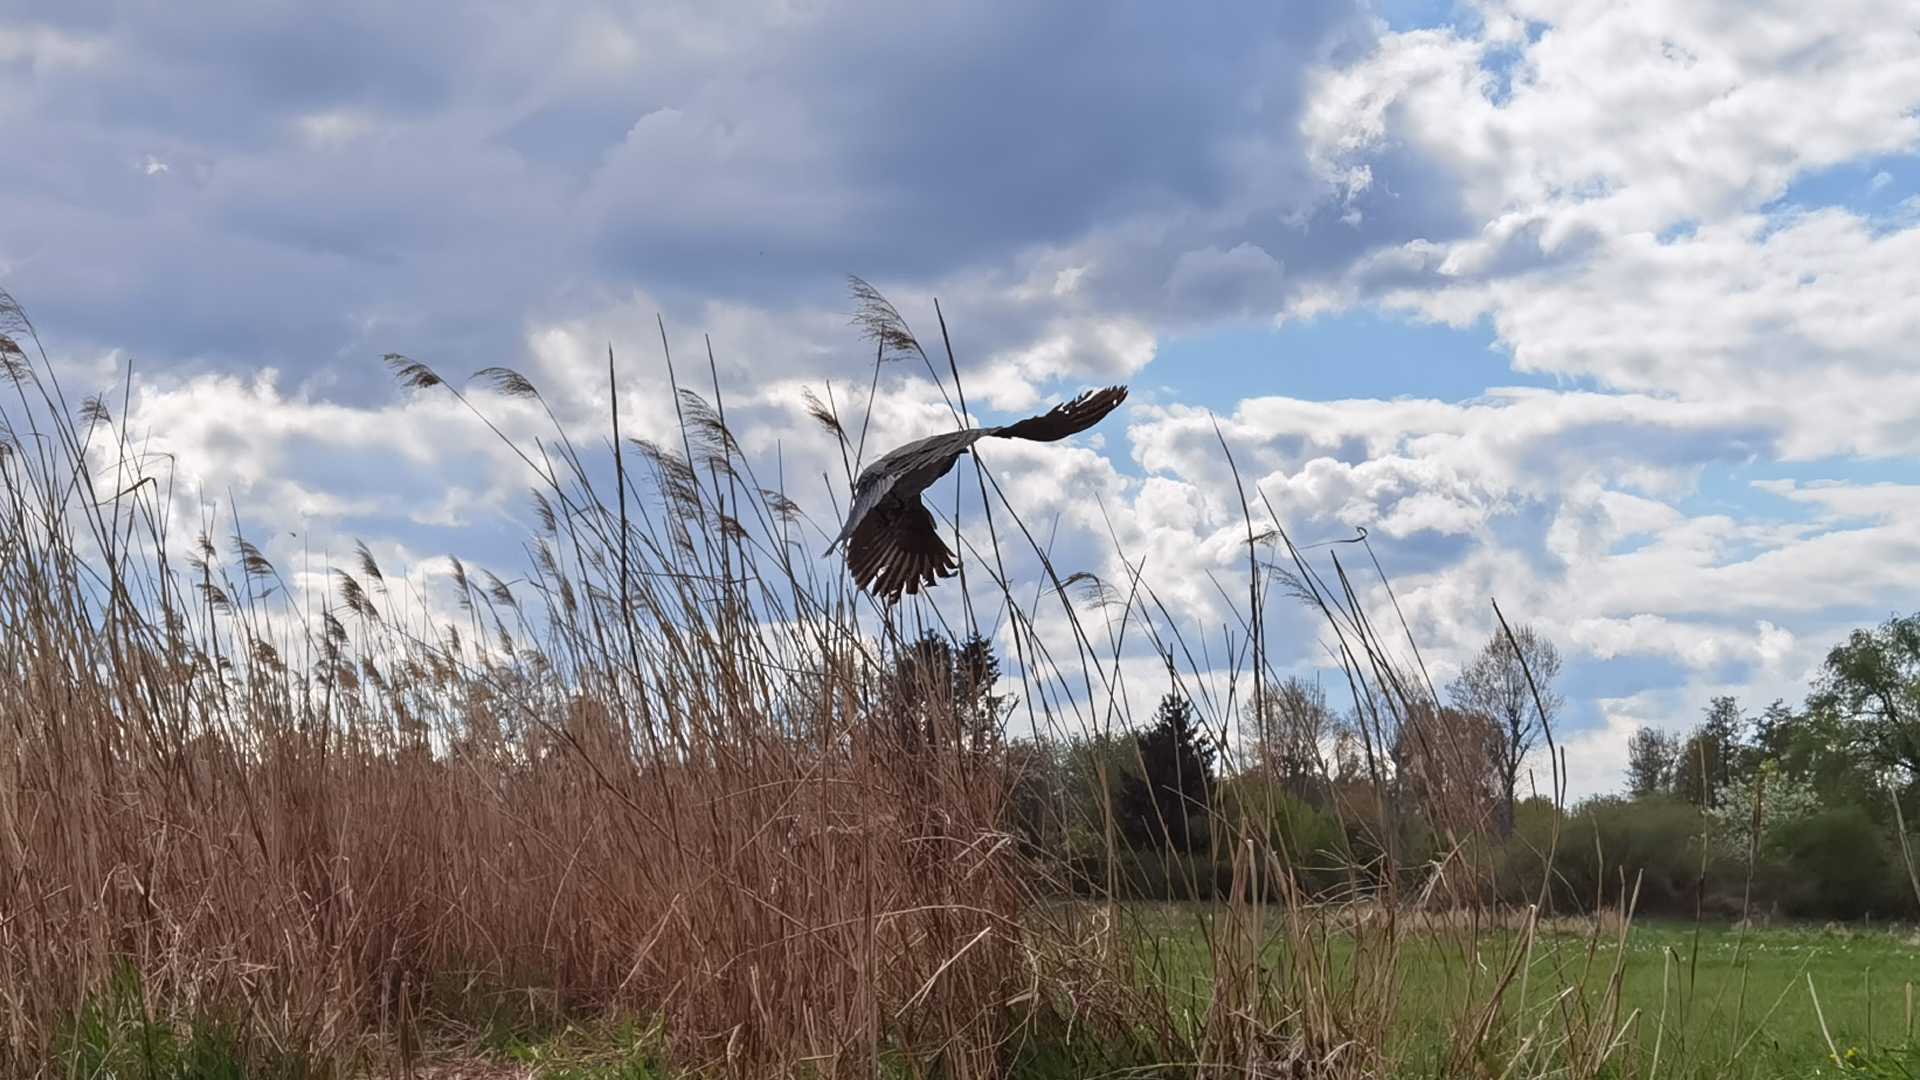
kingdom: Animalia
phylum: Chordata
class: Aves
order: Passeriformes
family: Corvidae
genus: Corvus
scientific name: Corvus cornix
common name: Hooded crow
